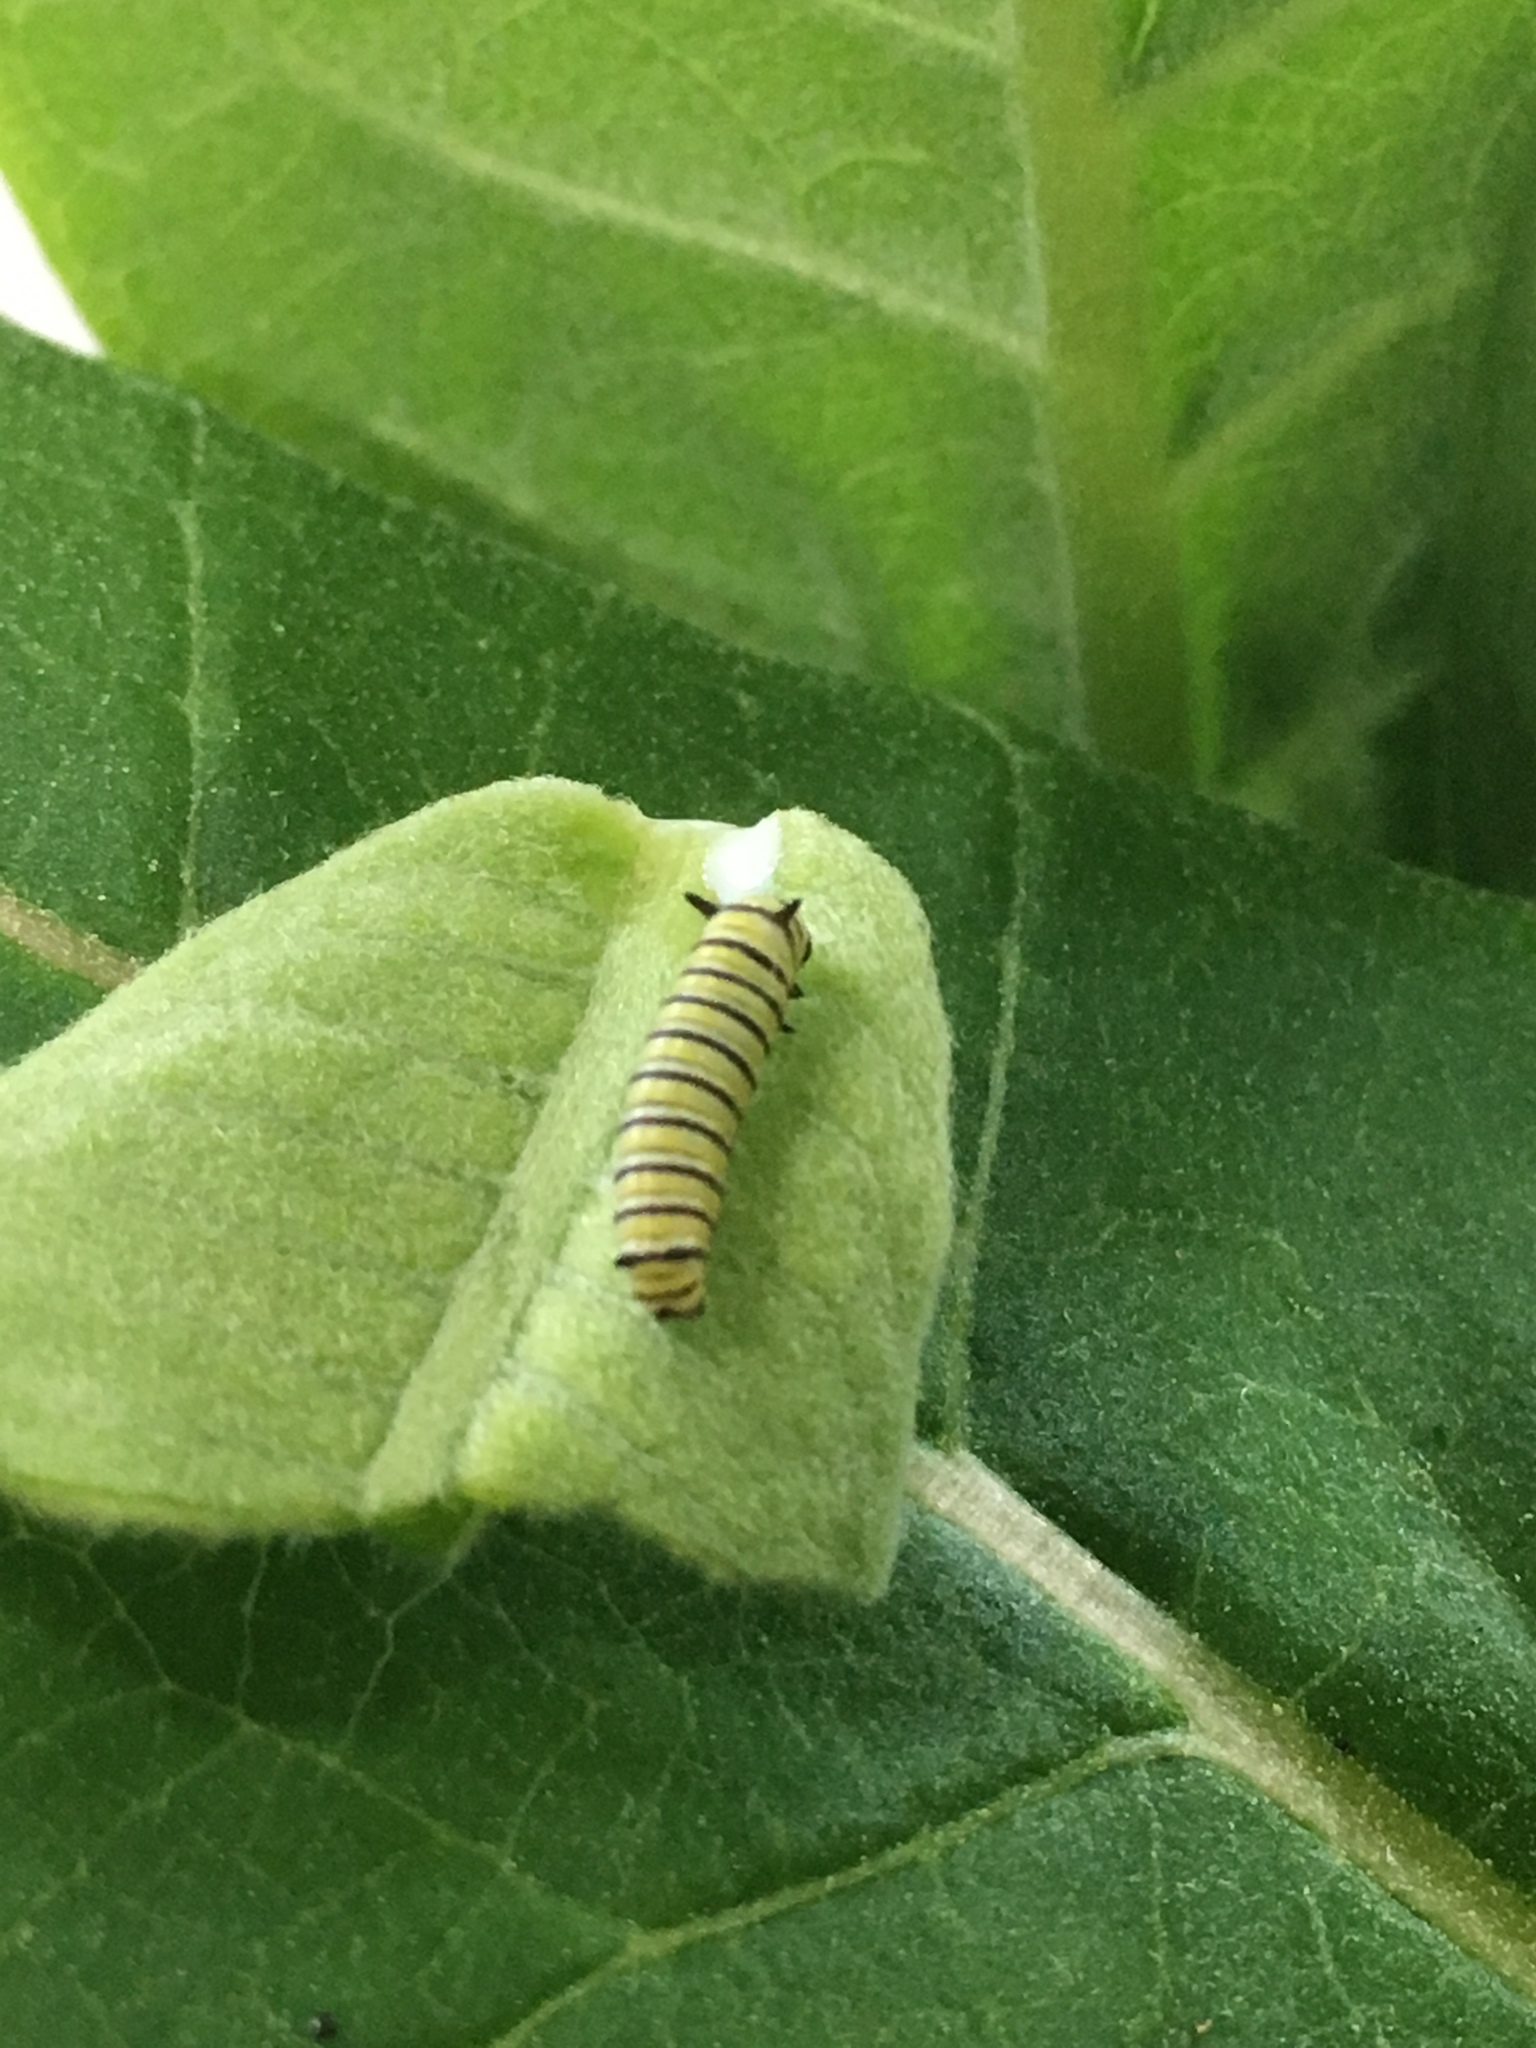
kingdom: Animalia
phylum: Arthropoda
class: Insecta
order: Lepidoptera
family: Nymphalidae
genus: Danaus
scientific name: Danaus plexippus
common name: Monarch
